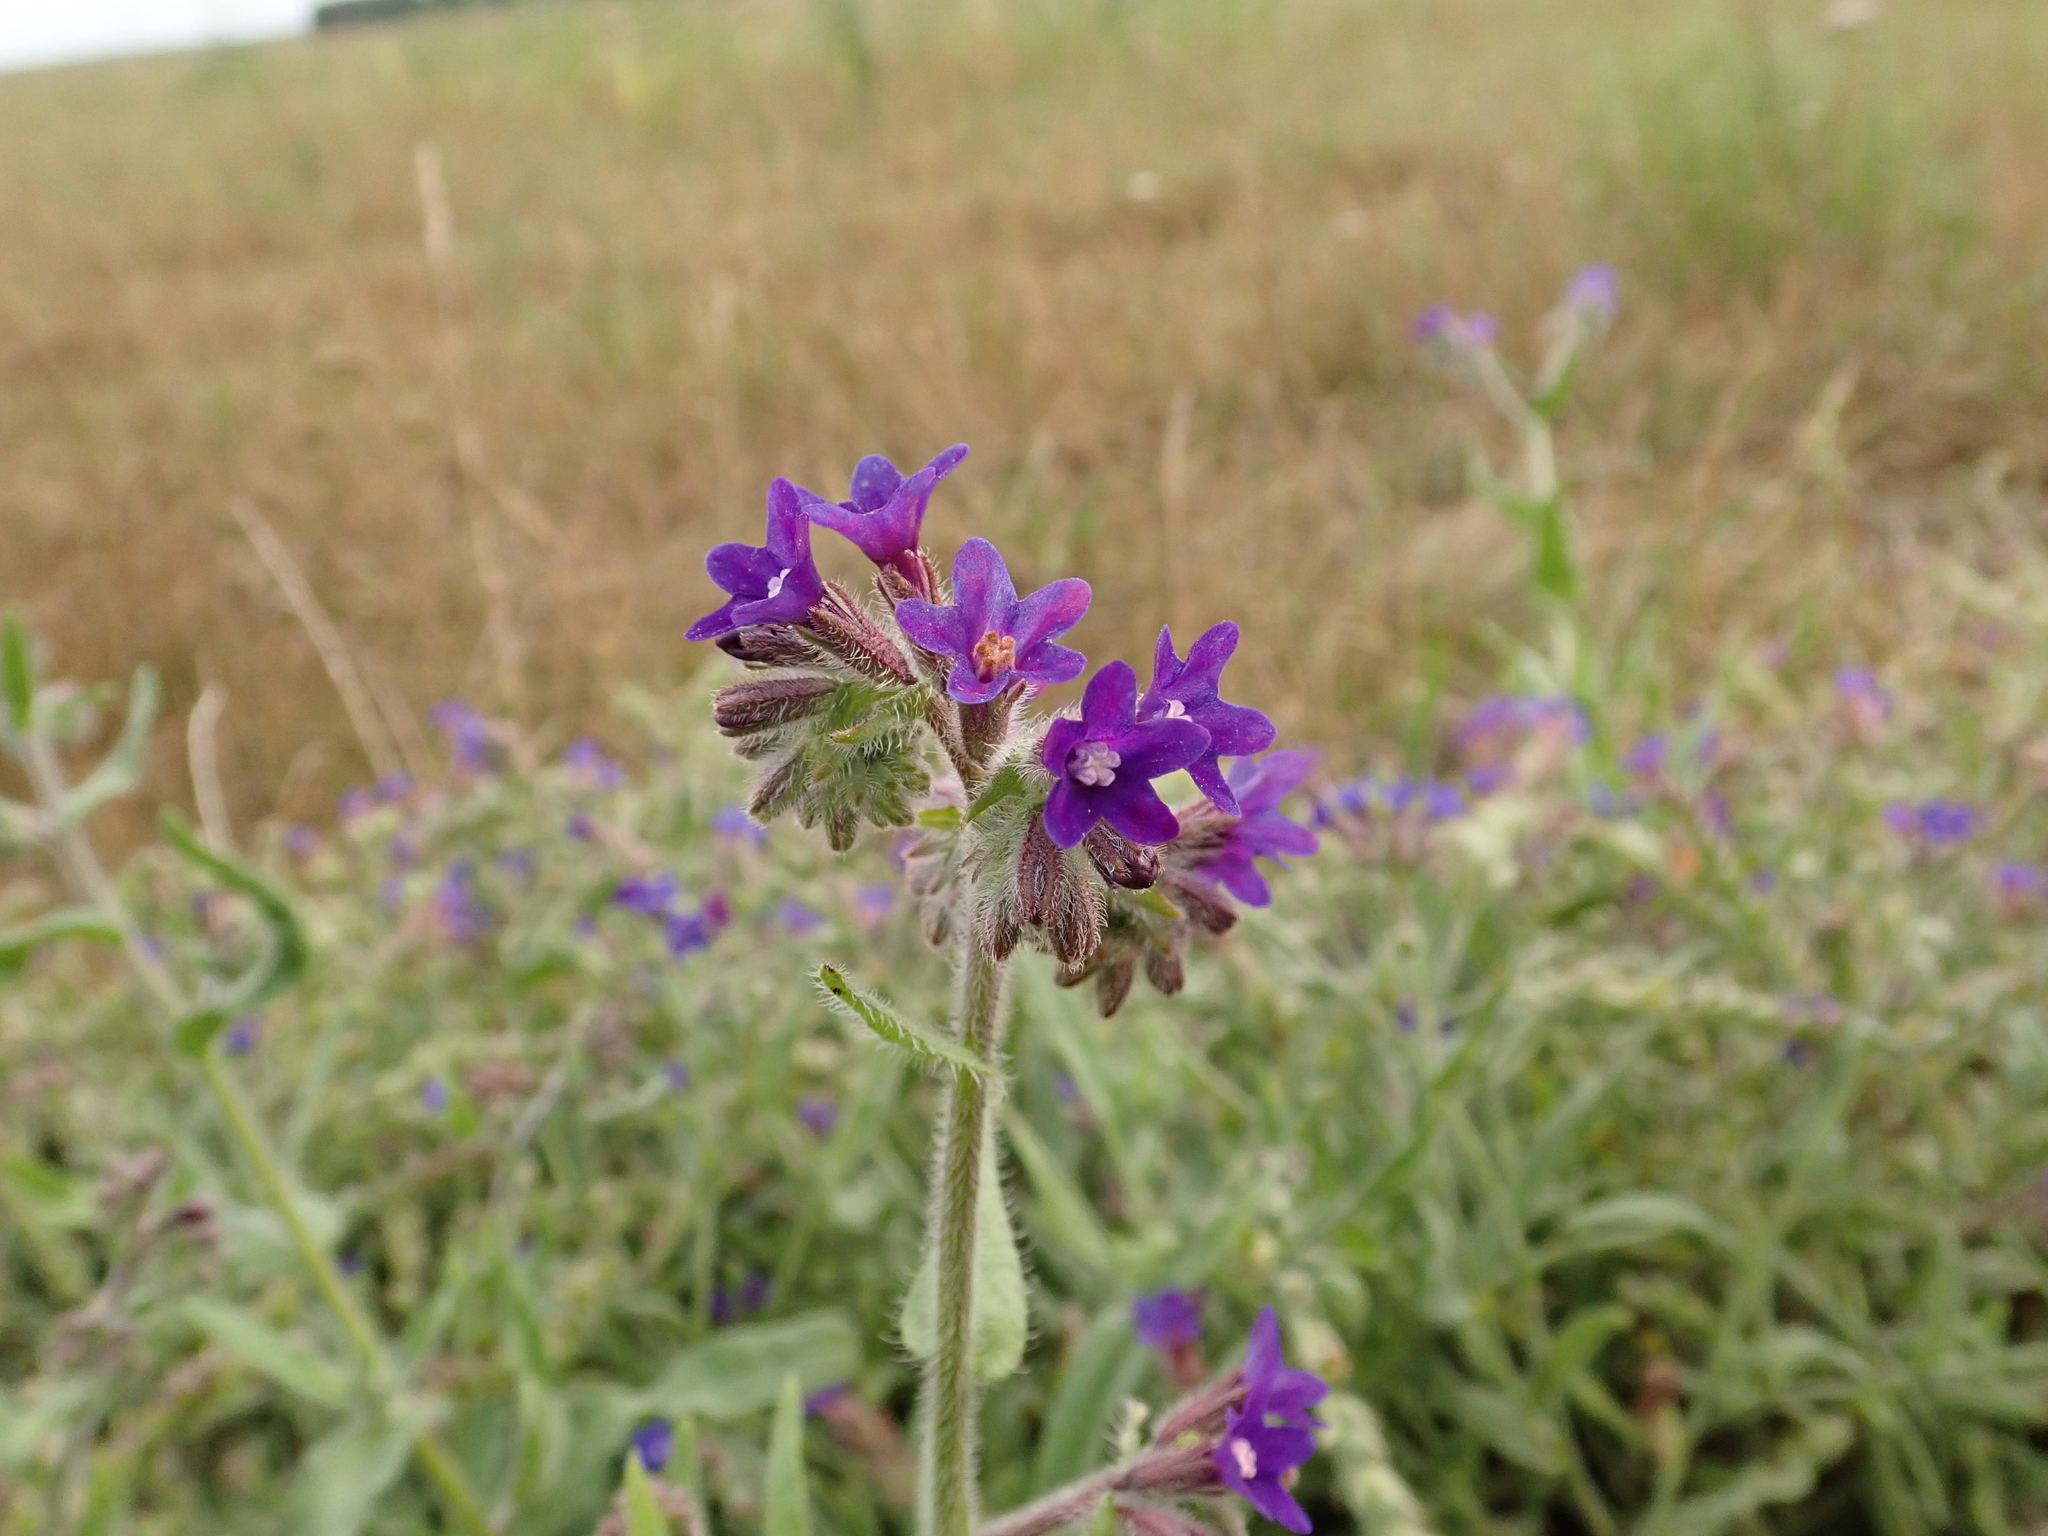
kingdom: Plantae
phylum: Tracheophyta
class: Magnoliopsida
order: Boraginales
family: Boraginaceae
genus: Anchusa
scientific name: Anchusa officinalis
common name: Alkanet
